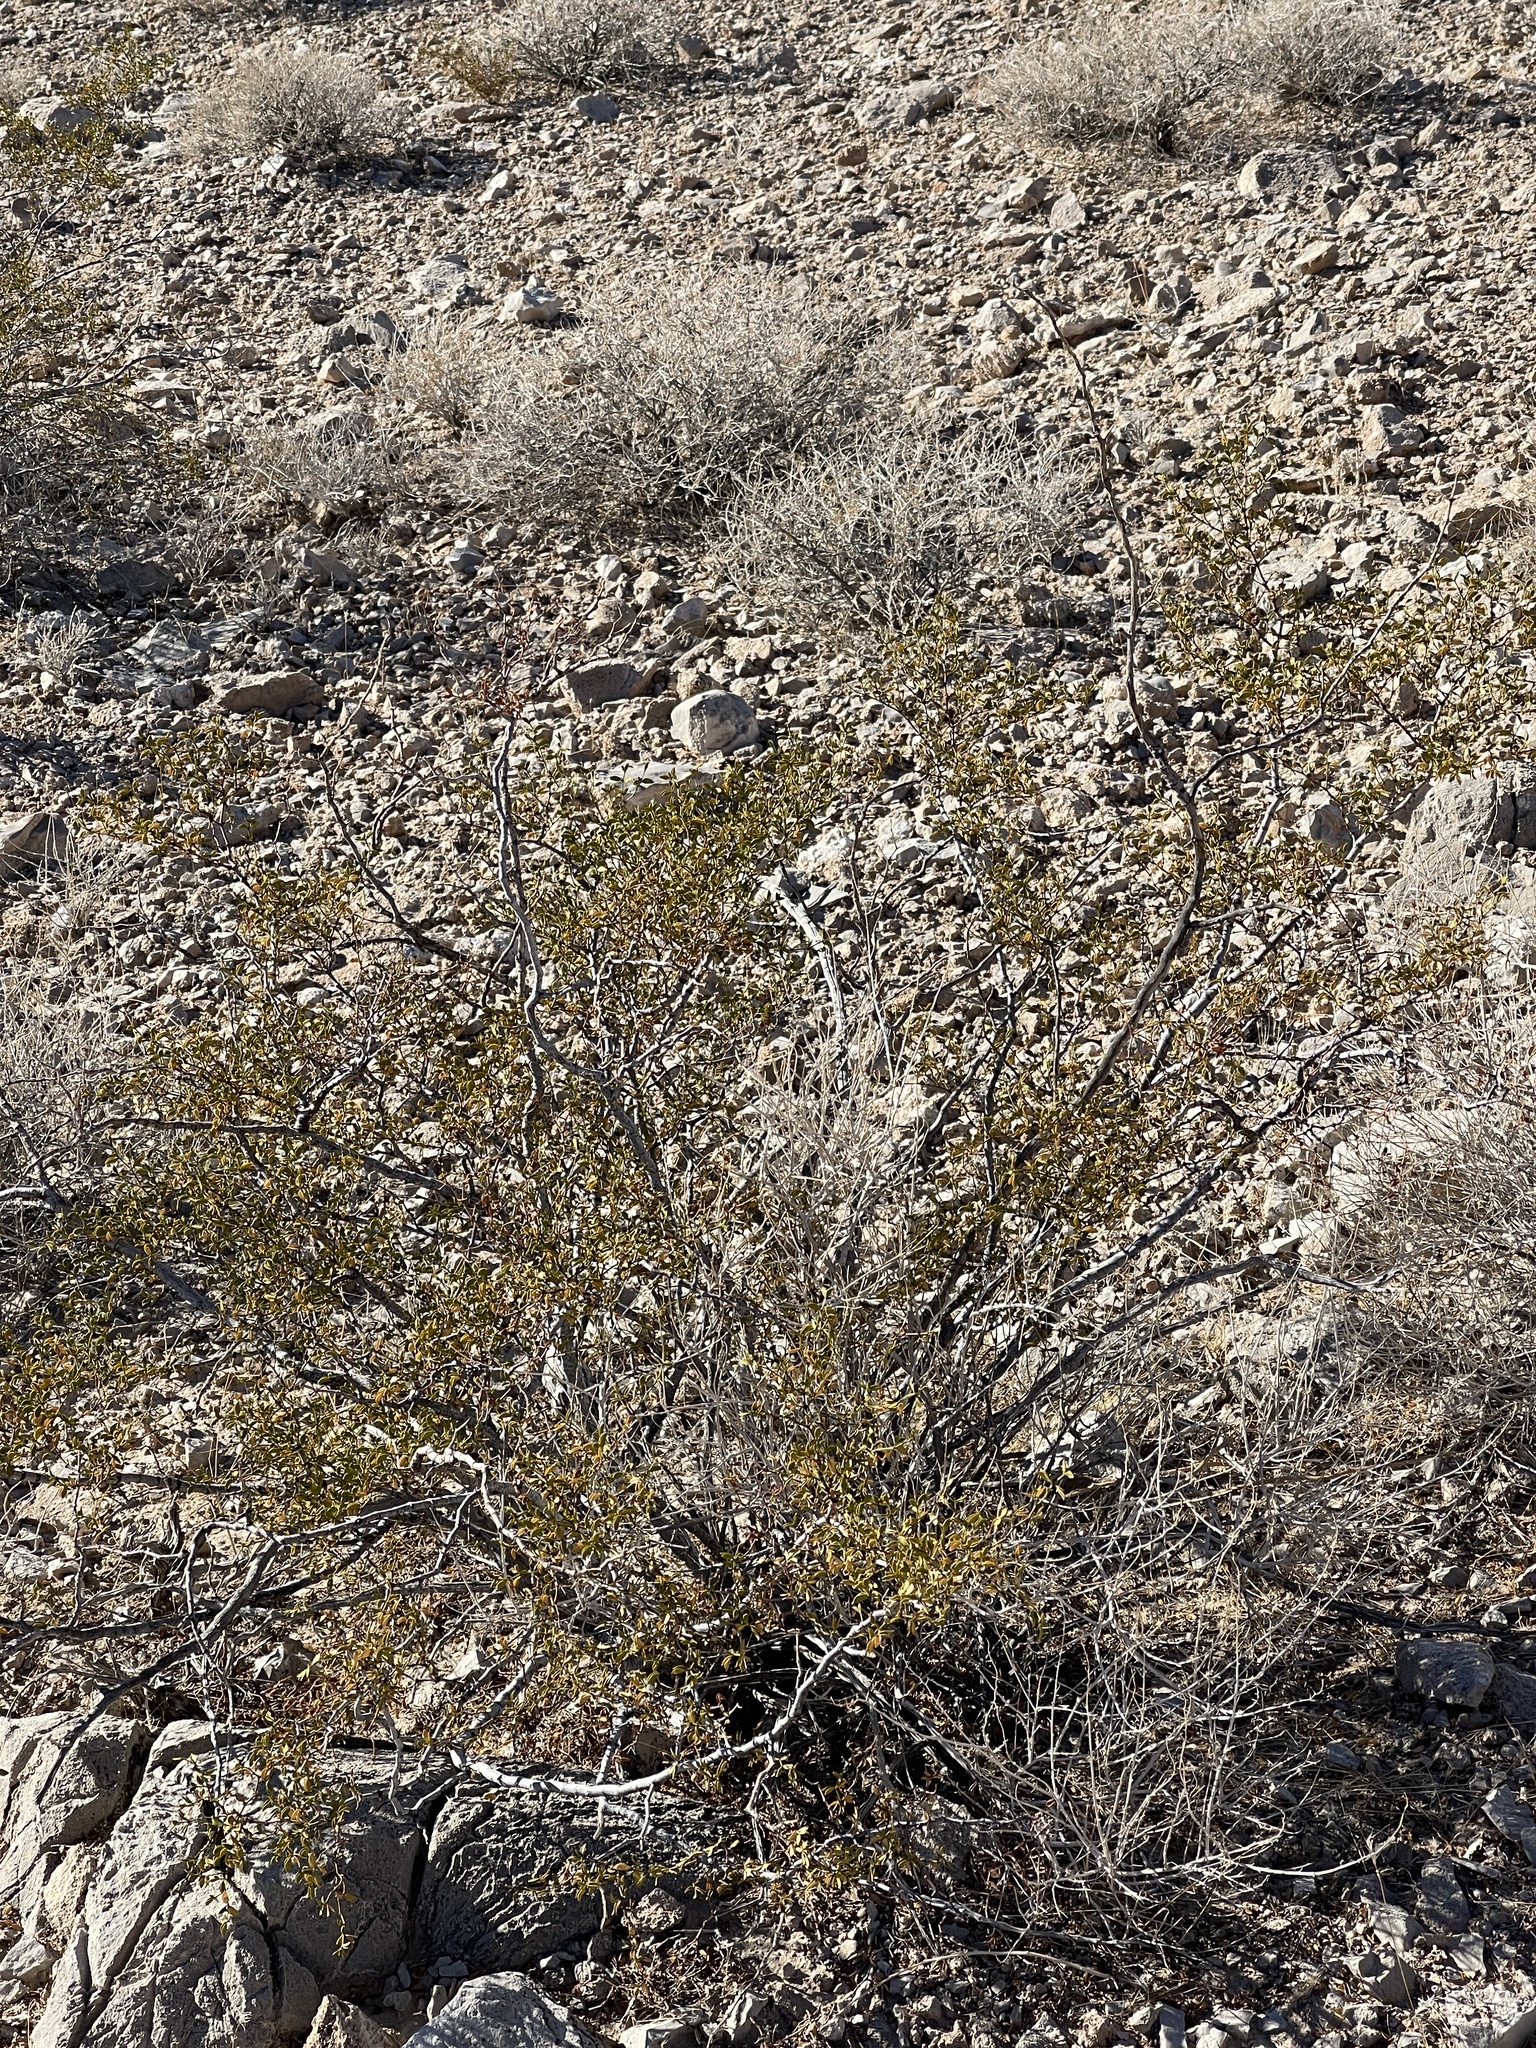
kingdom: Plantae
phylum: Tracheophyta
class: Magnoliopsida
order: Zygophyllales
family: Zygophyllaceae
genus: Larrea
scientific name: Larrea tridentata
